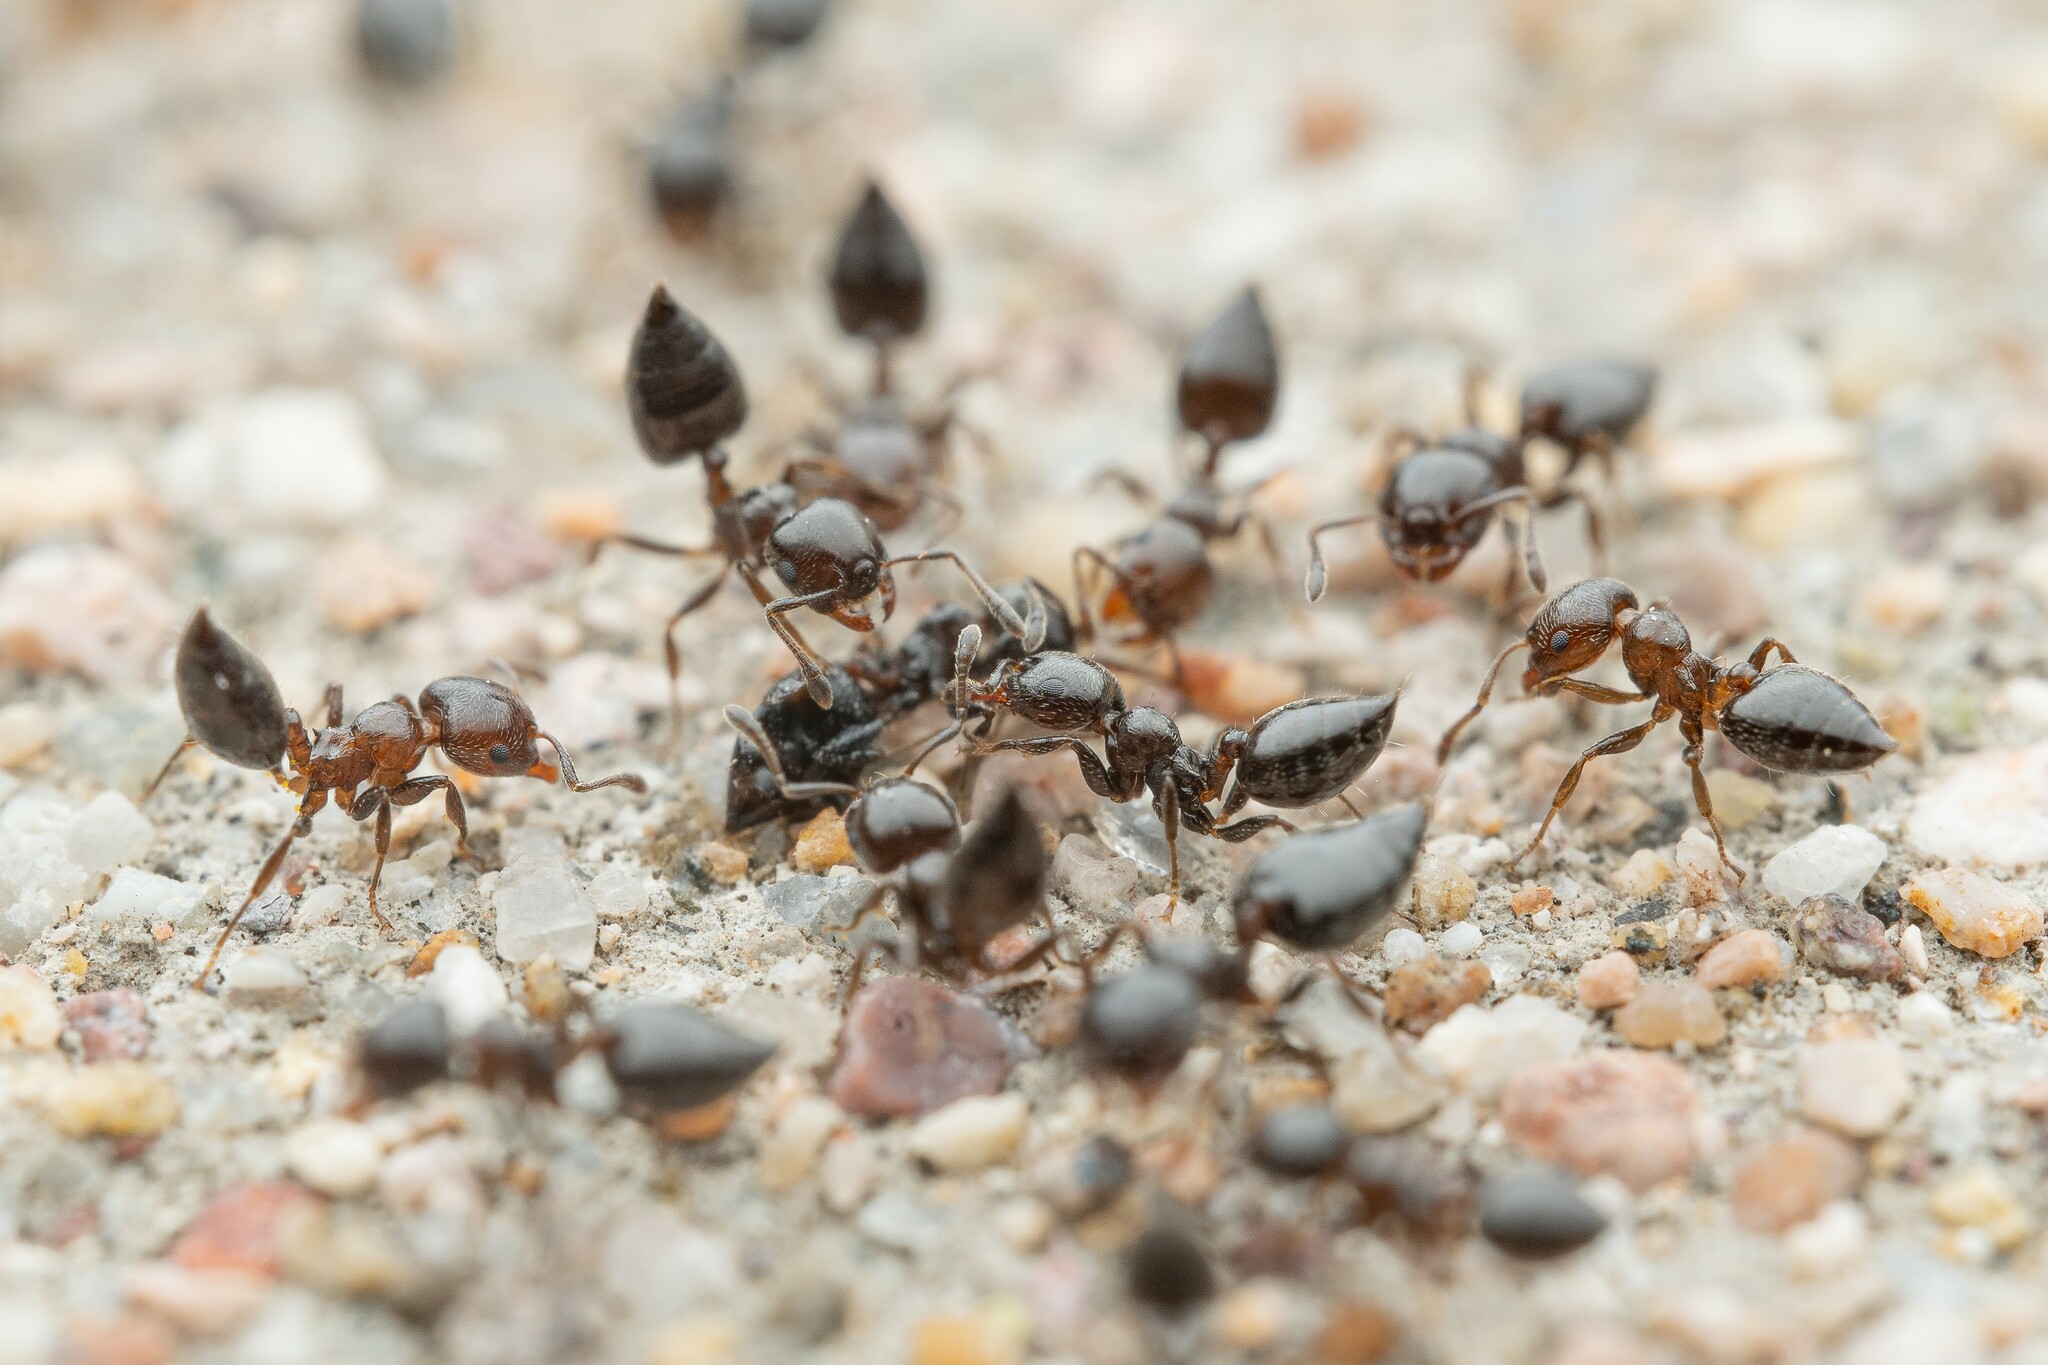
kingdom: Animalia
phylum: Arthropoda
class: Insecta
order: Hymenoptera
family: Formicidae
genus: Crematogaster
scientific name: Crematogaster torosa
